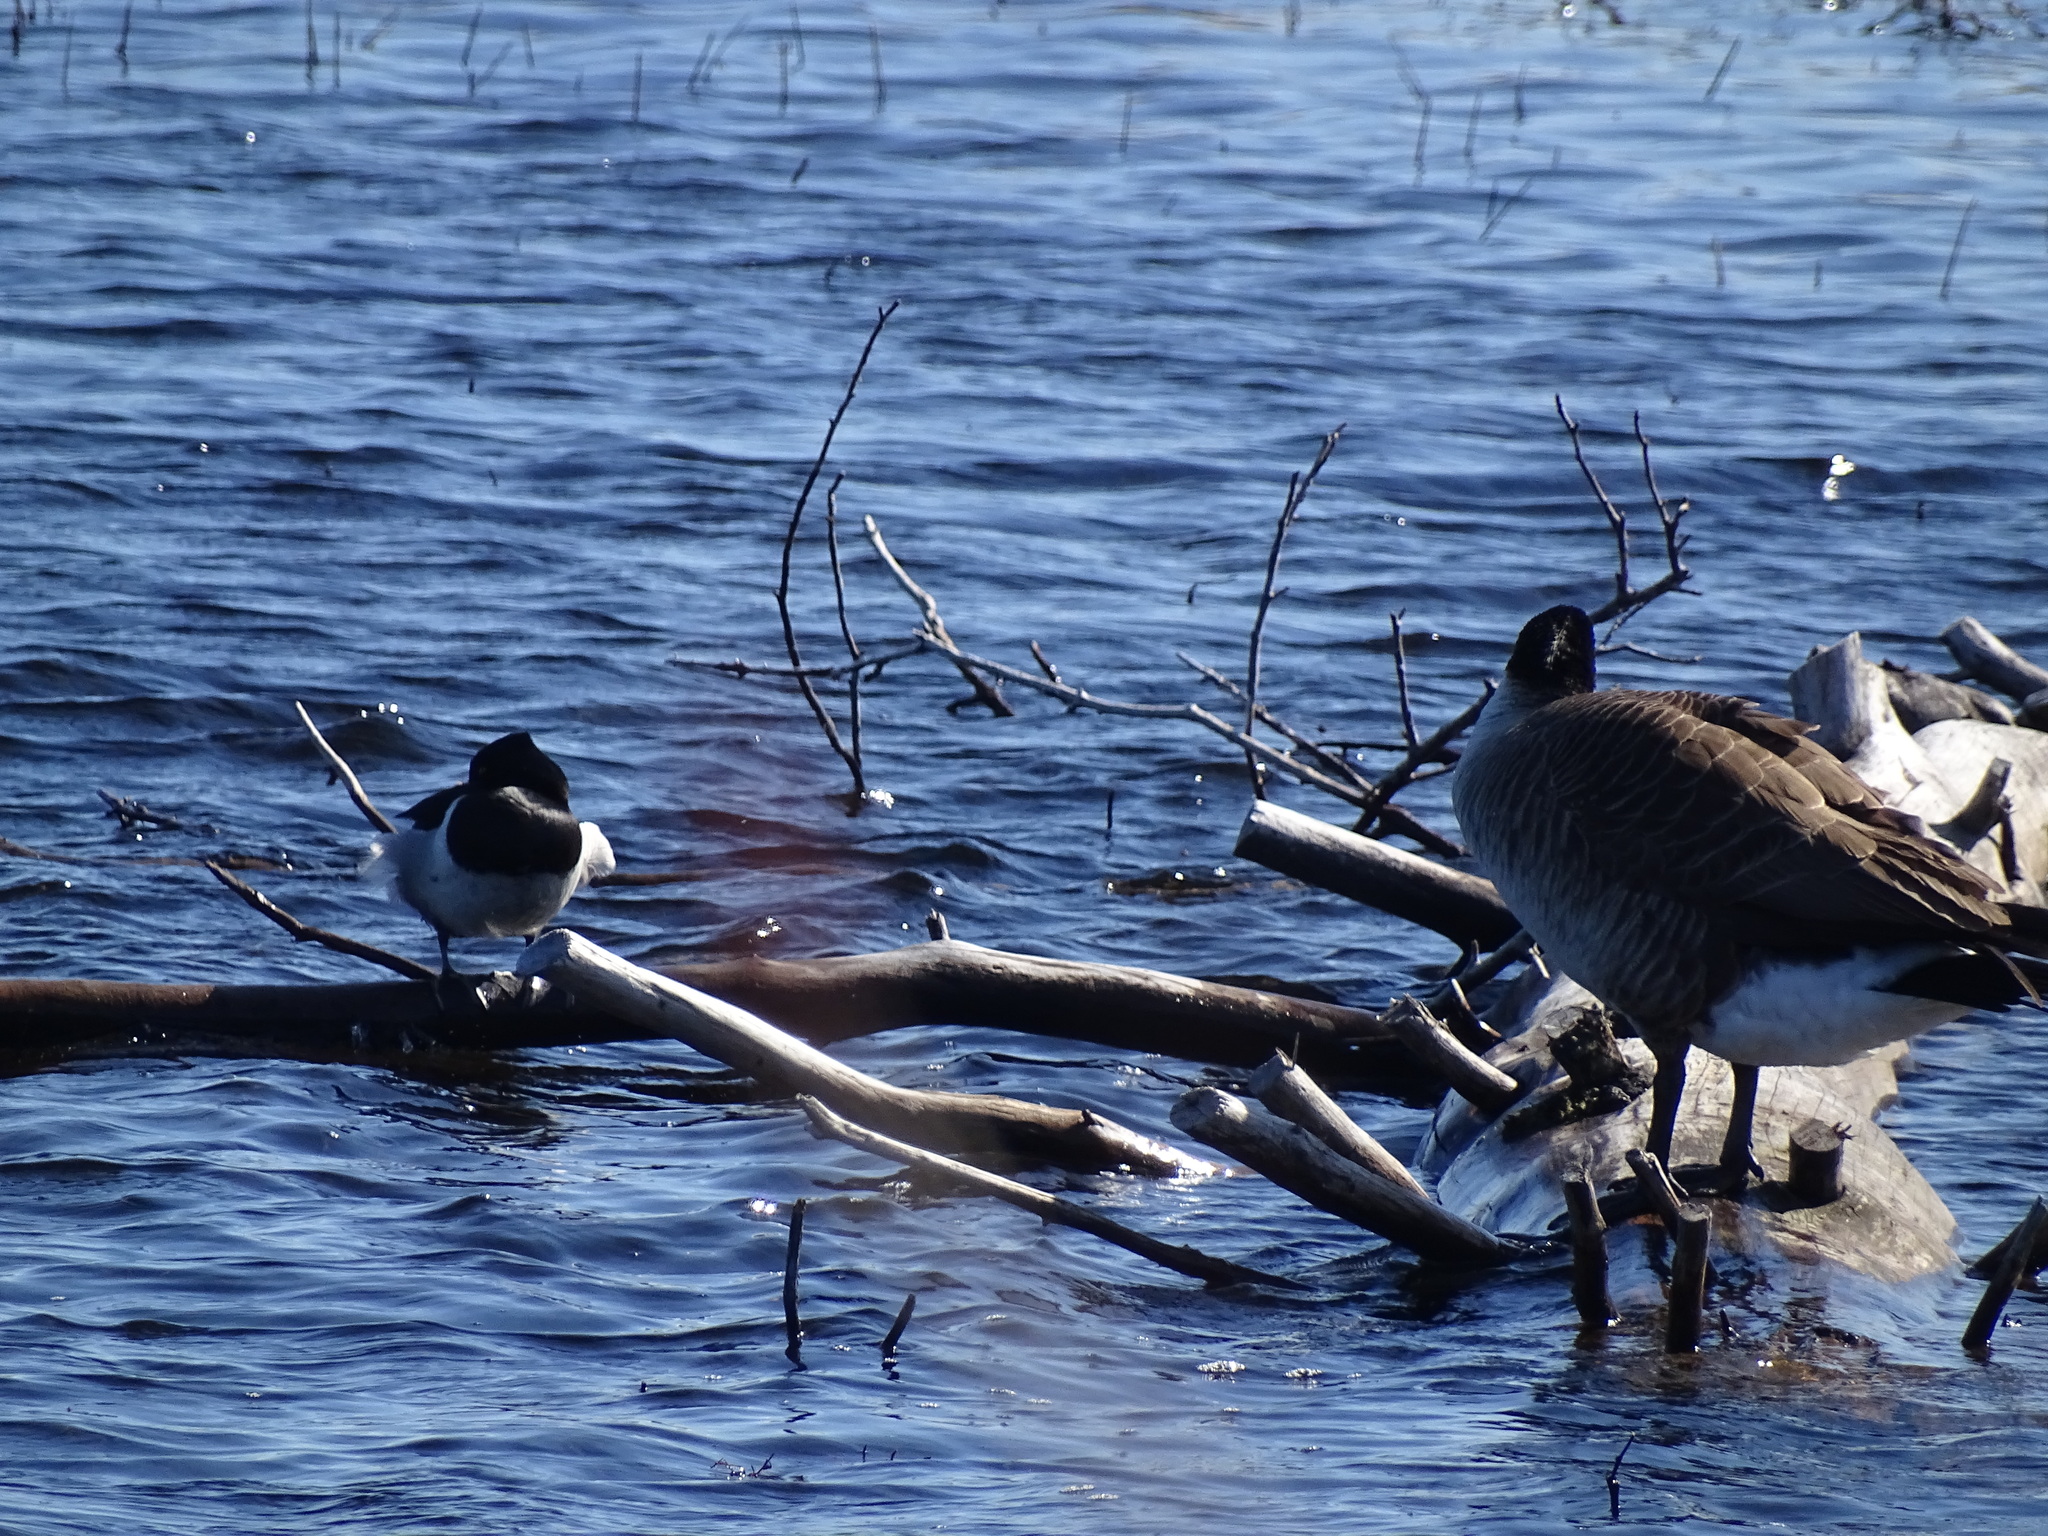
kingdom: Animalia
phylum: Chordata
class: Aves
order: Anseriformes
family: Anatidae
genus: Branta
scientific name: Branta canadensis
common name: Canada goose
